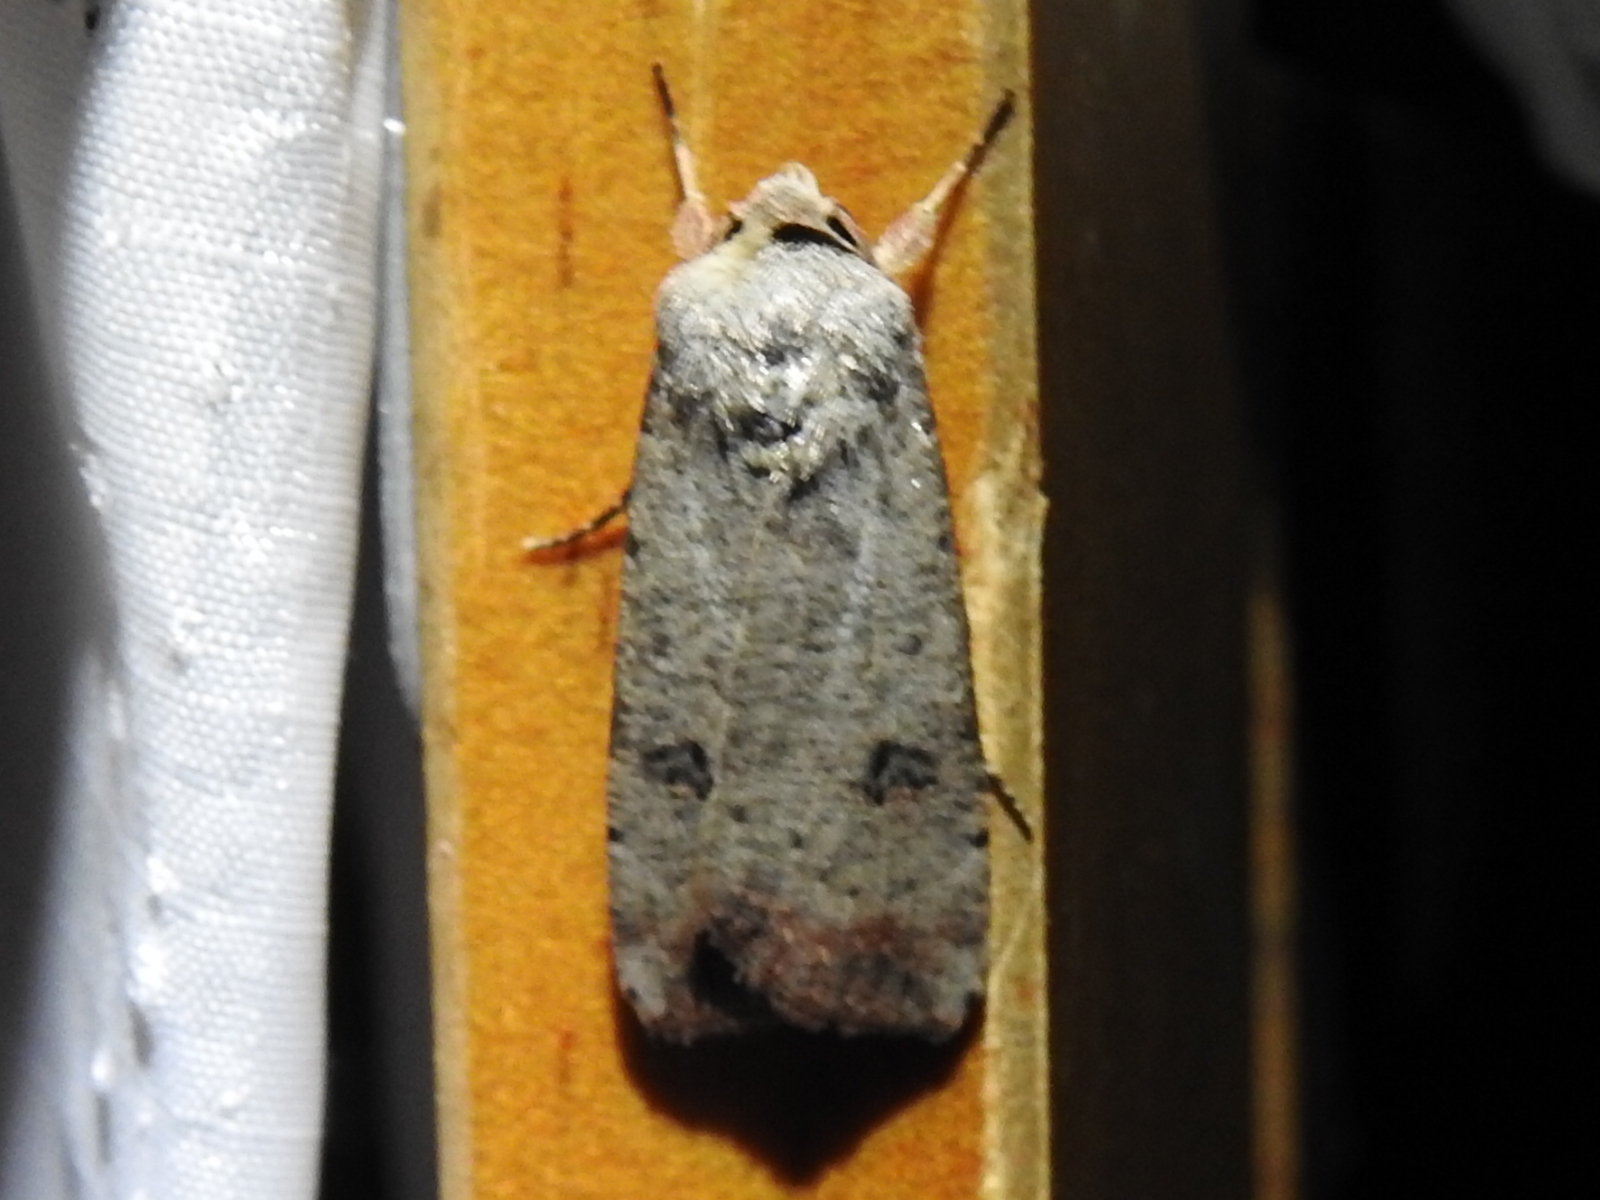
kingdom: Animalia
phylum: Arthropoda
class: Insecta
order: Lepidoptera
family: Noctuidae
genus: Anicla
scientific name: Anicla infecta
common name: Green cutworm
